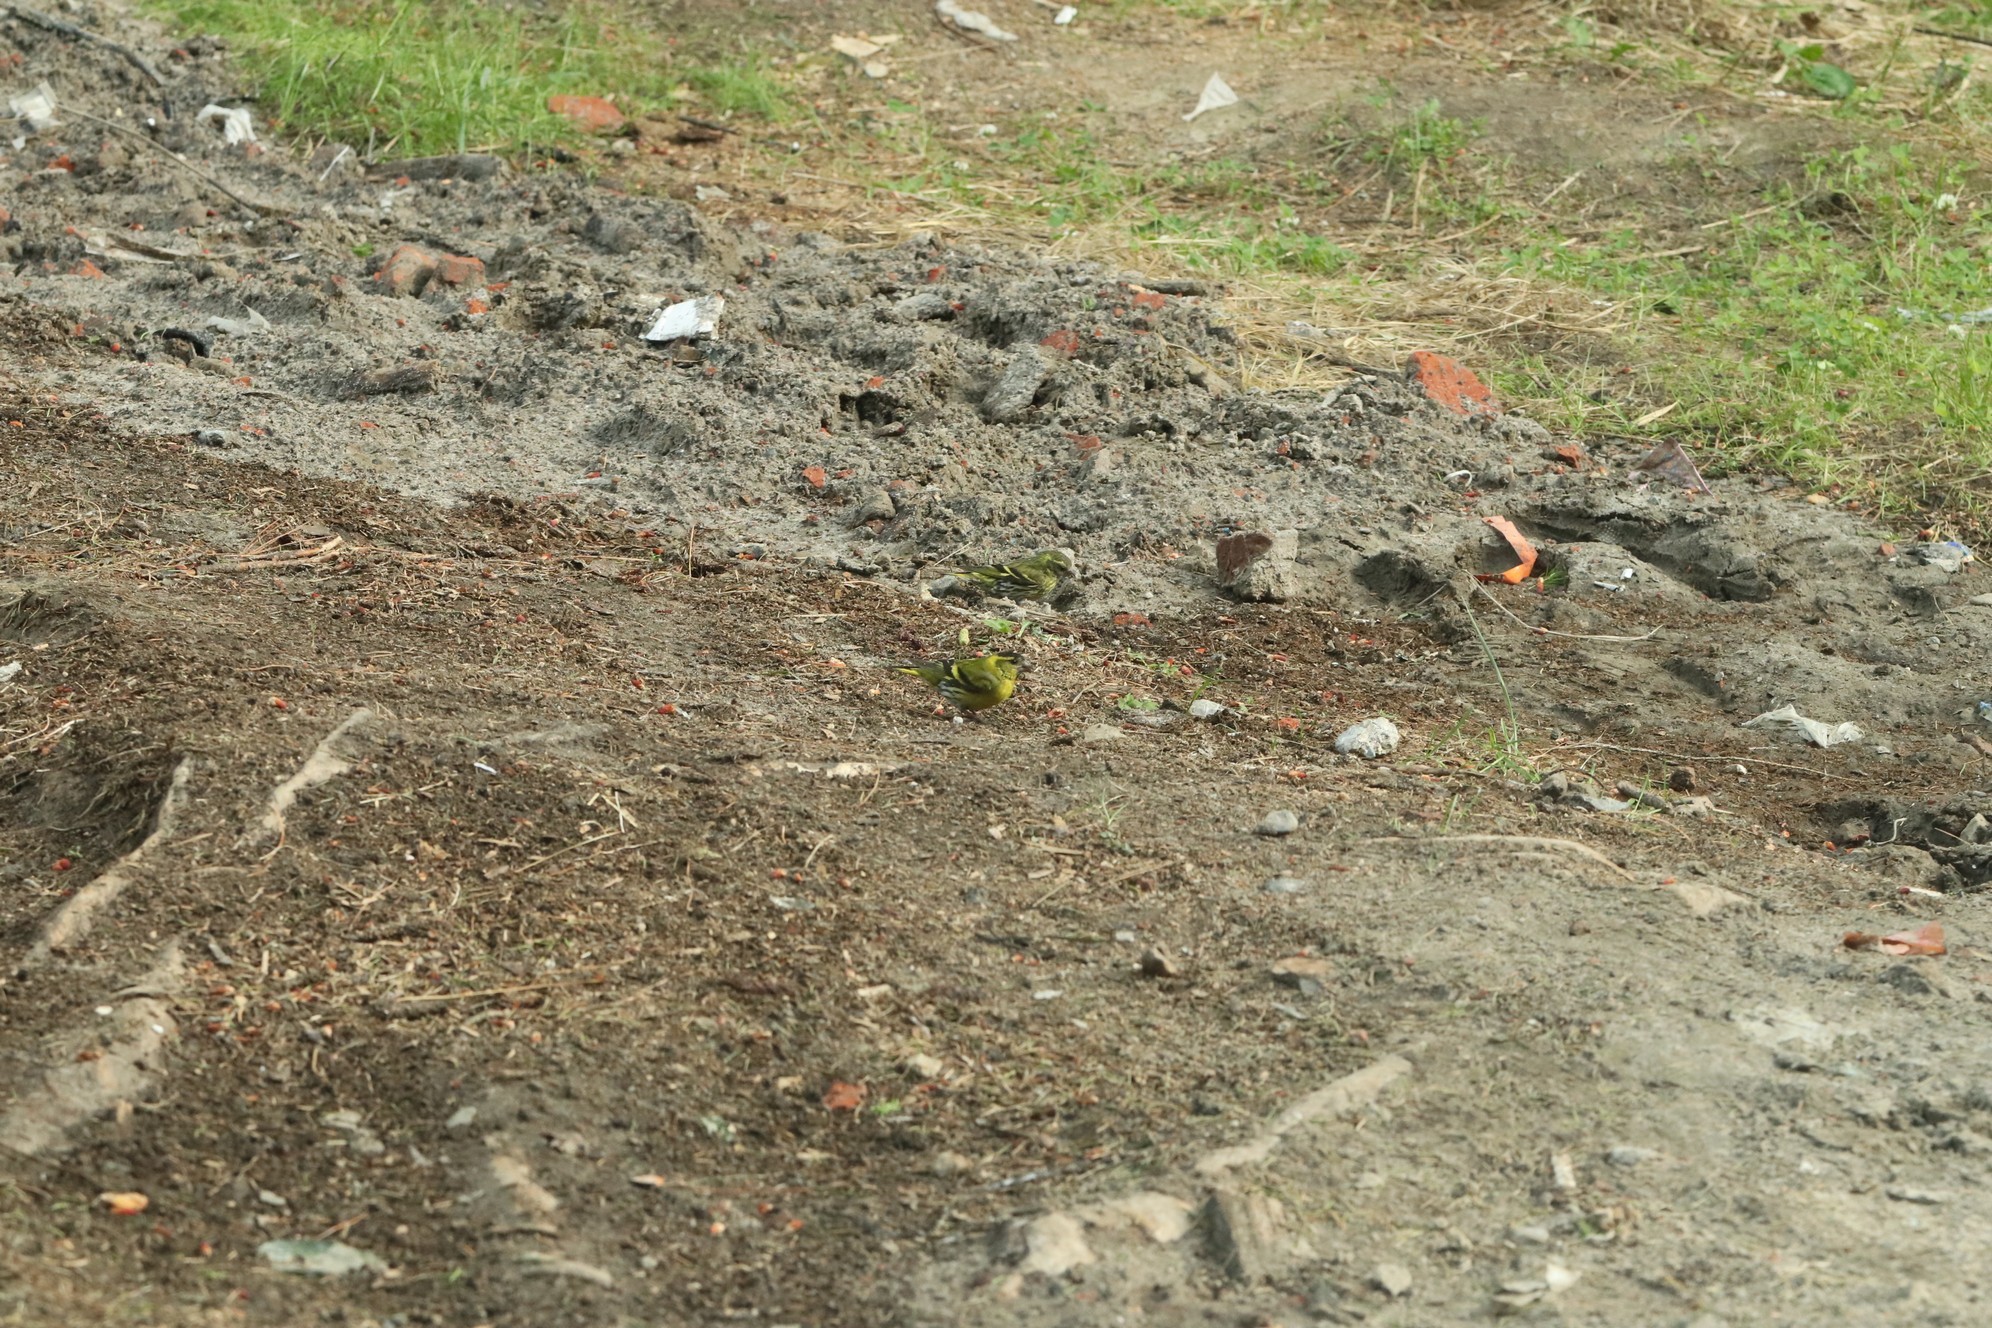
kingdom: Animalia
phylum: Chordata
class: Aves
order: Passeriformes
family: Fringillidae
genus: Spinus
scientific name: Spinus spinus
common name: Eurasian siskin
